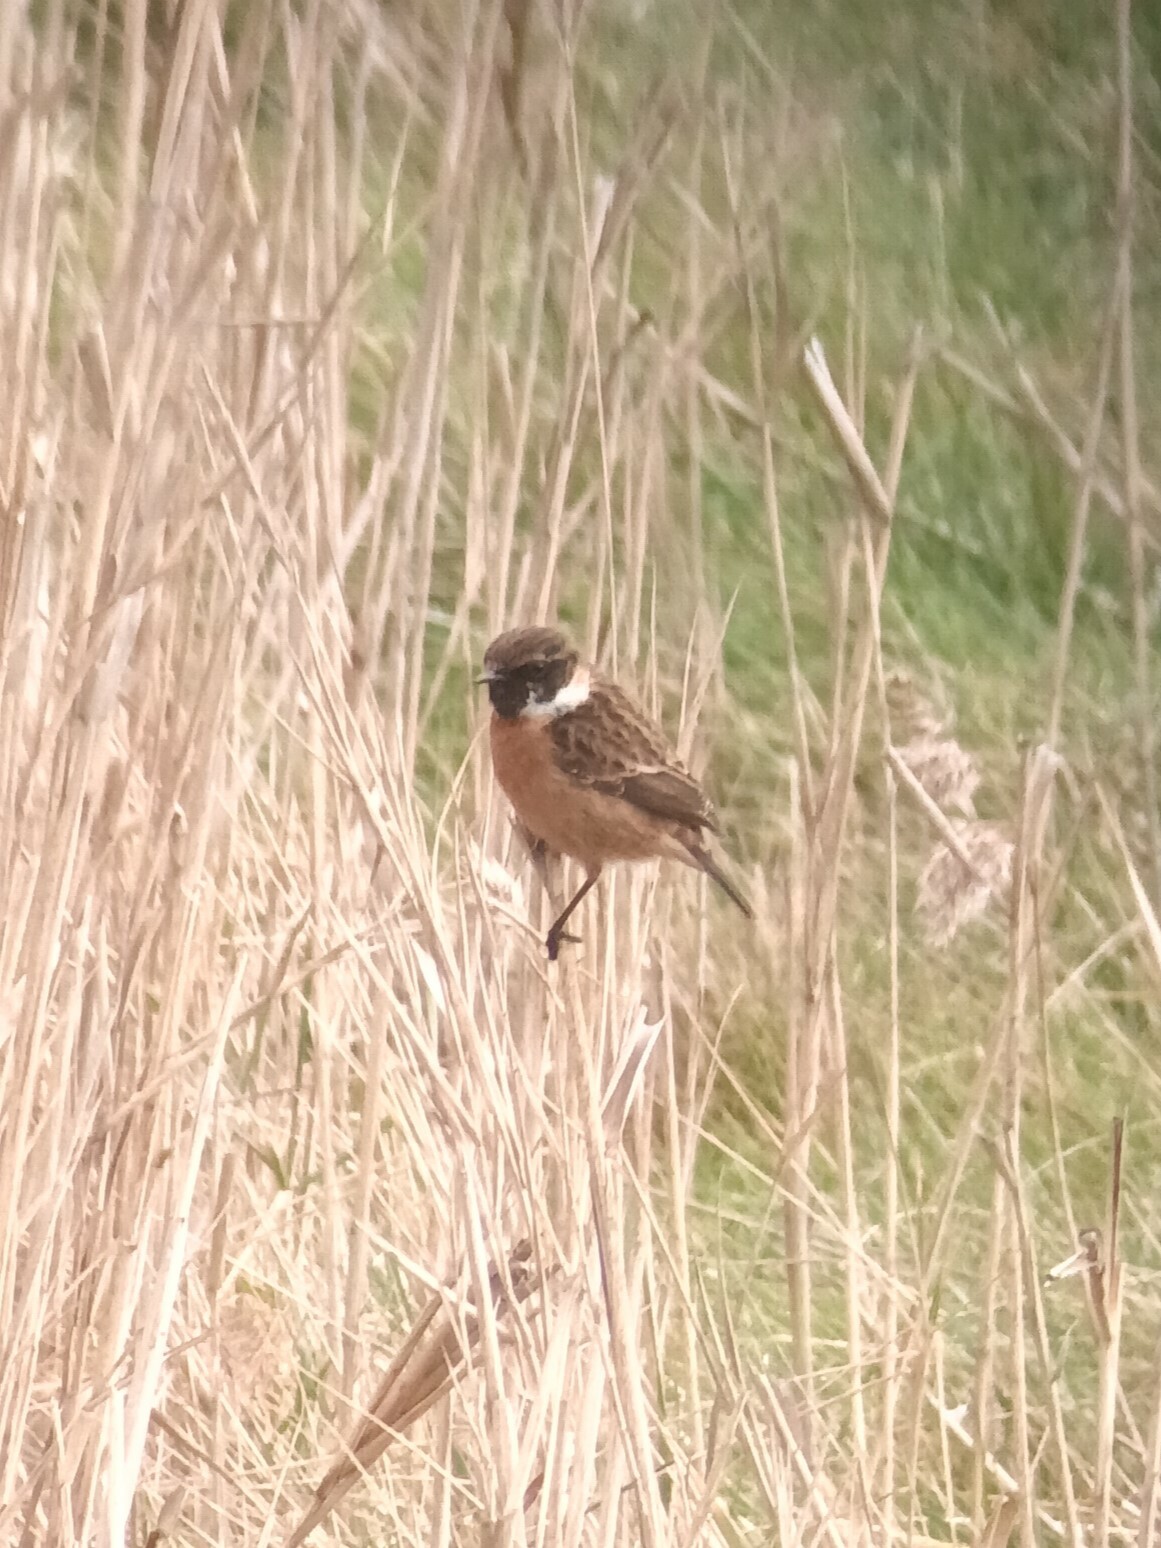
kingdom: Animalia
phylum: Chordata
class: Aves
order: Passeriformes
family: Muscicapidae
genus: Saxicola
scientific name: Saxicola rubicola
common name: European stonechat
